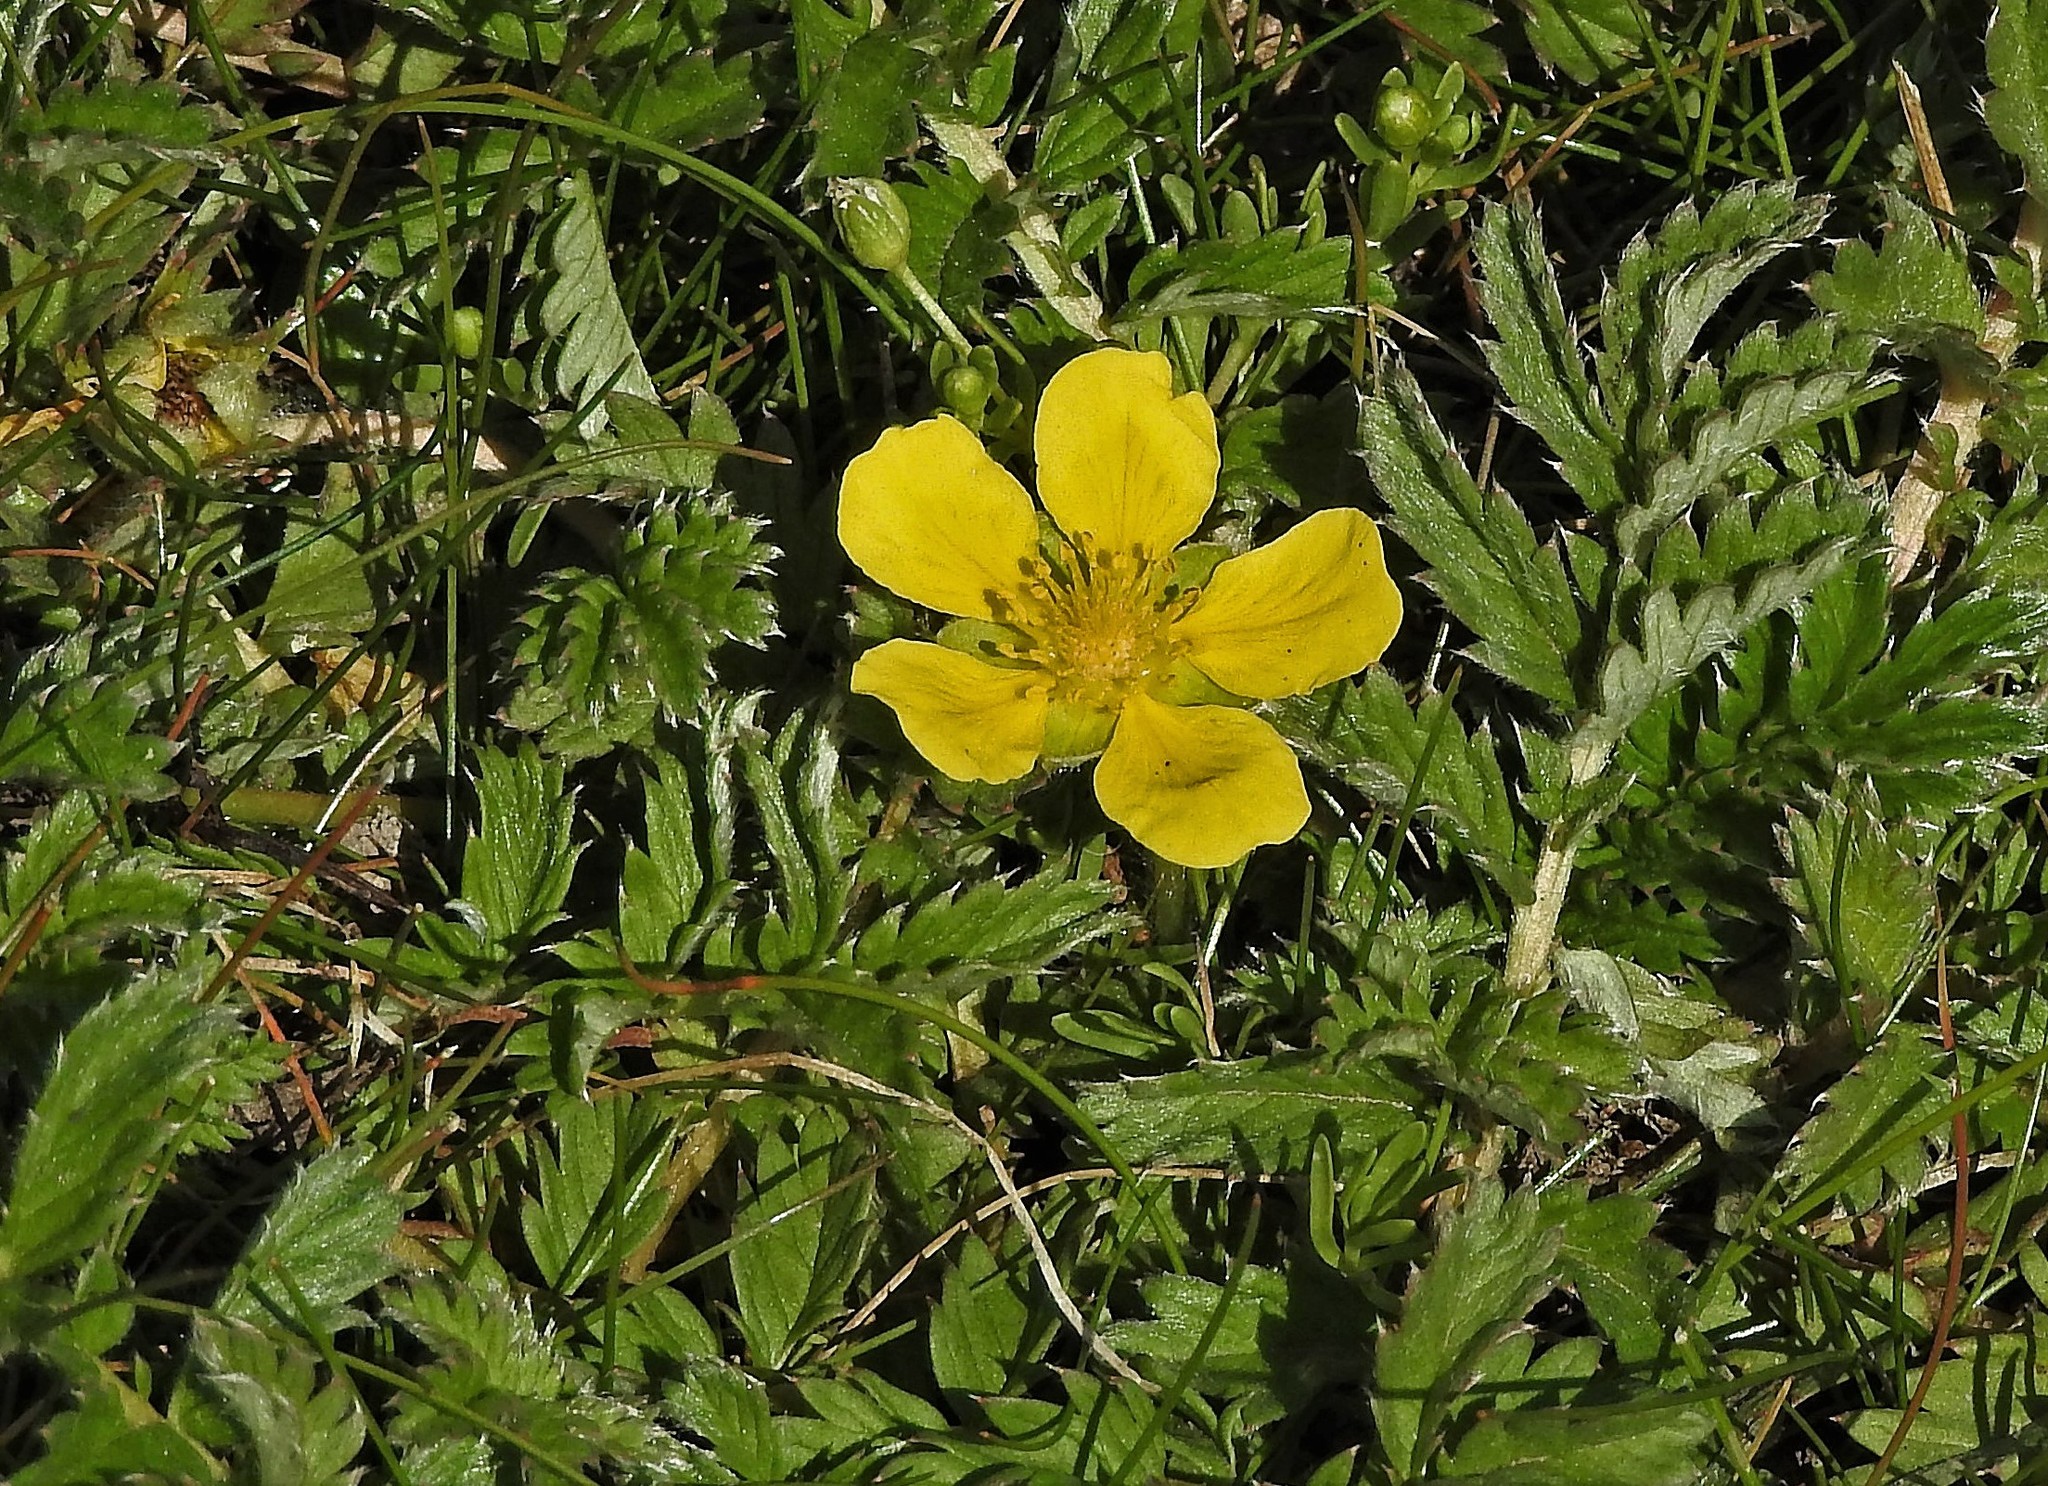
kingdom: Plantae
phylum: Tracheophyta
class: Magnoliopsida
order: Rosales
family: Rosaceae
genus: Argentina
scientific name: Argentina anserina
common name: Common silverweed
